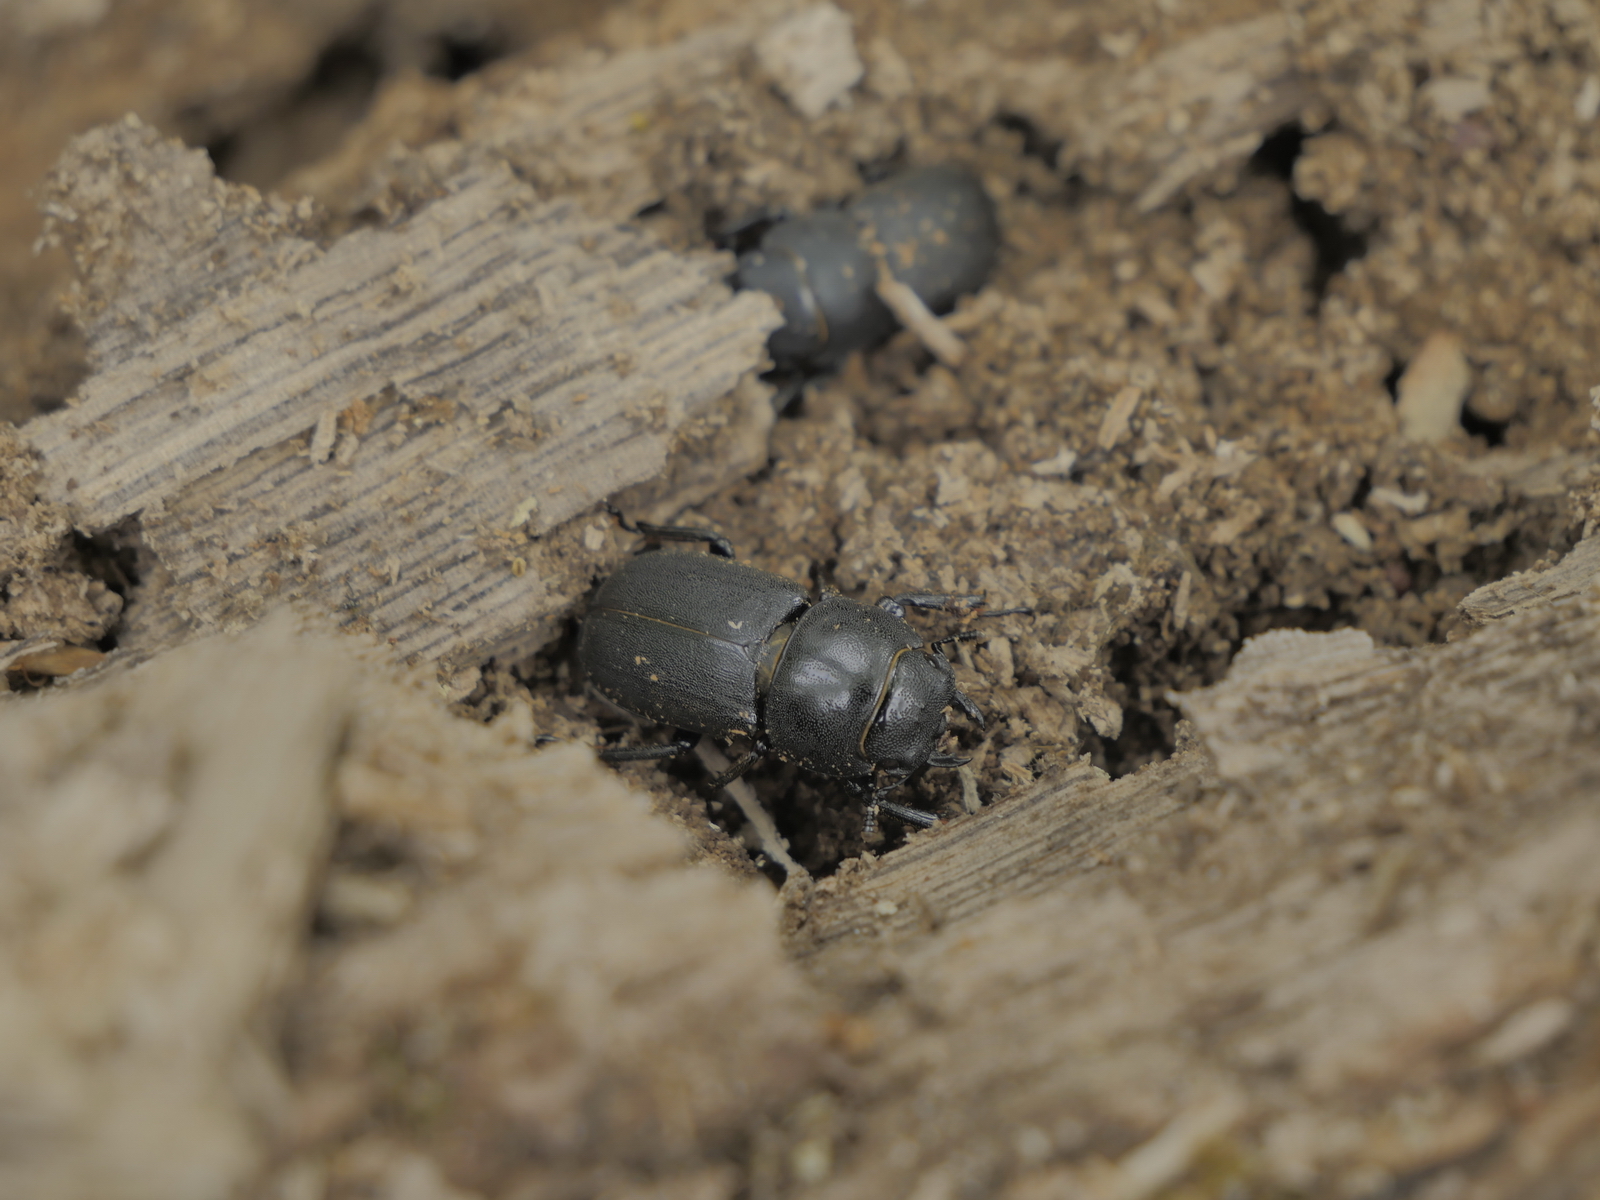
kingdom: Animalia
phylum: Arthropoda
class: Insecta
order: Coleoptera
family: Lucanidae
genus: Dorcus
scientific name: Dorcus parallelipipedus
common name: Lesser stag beetle
